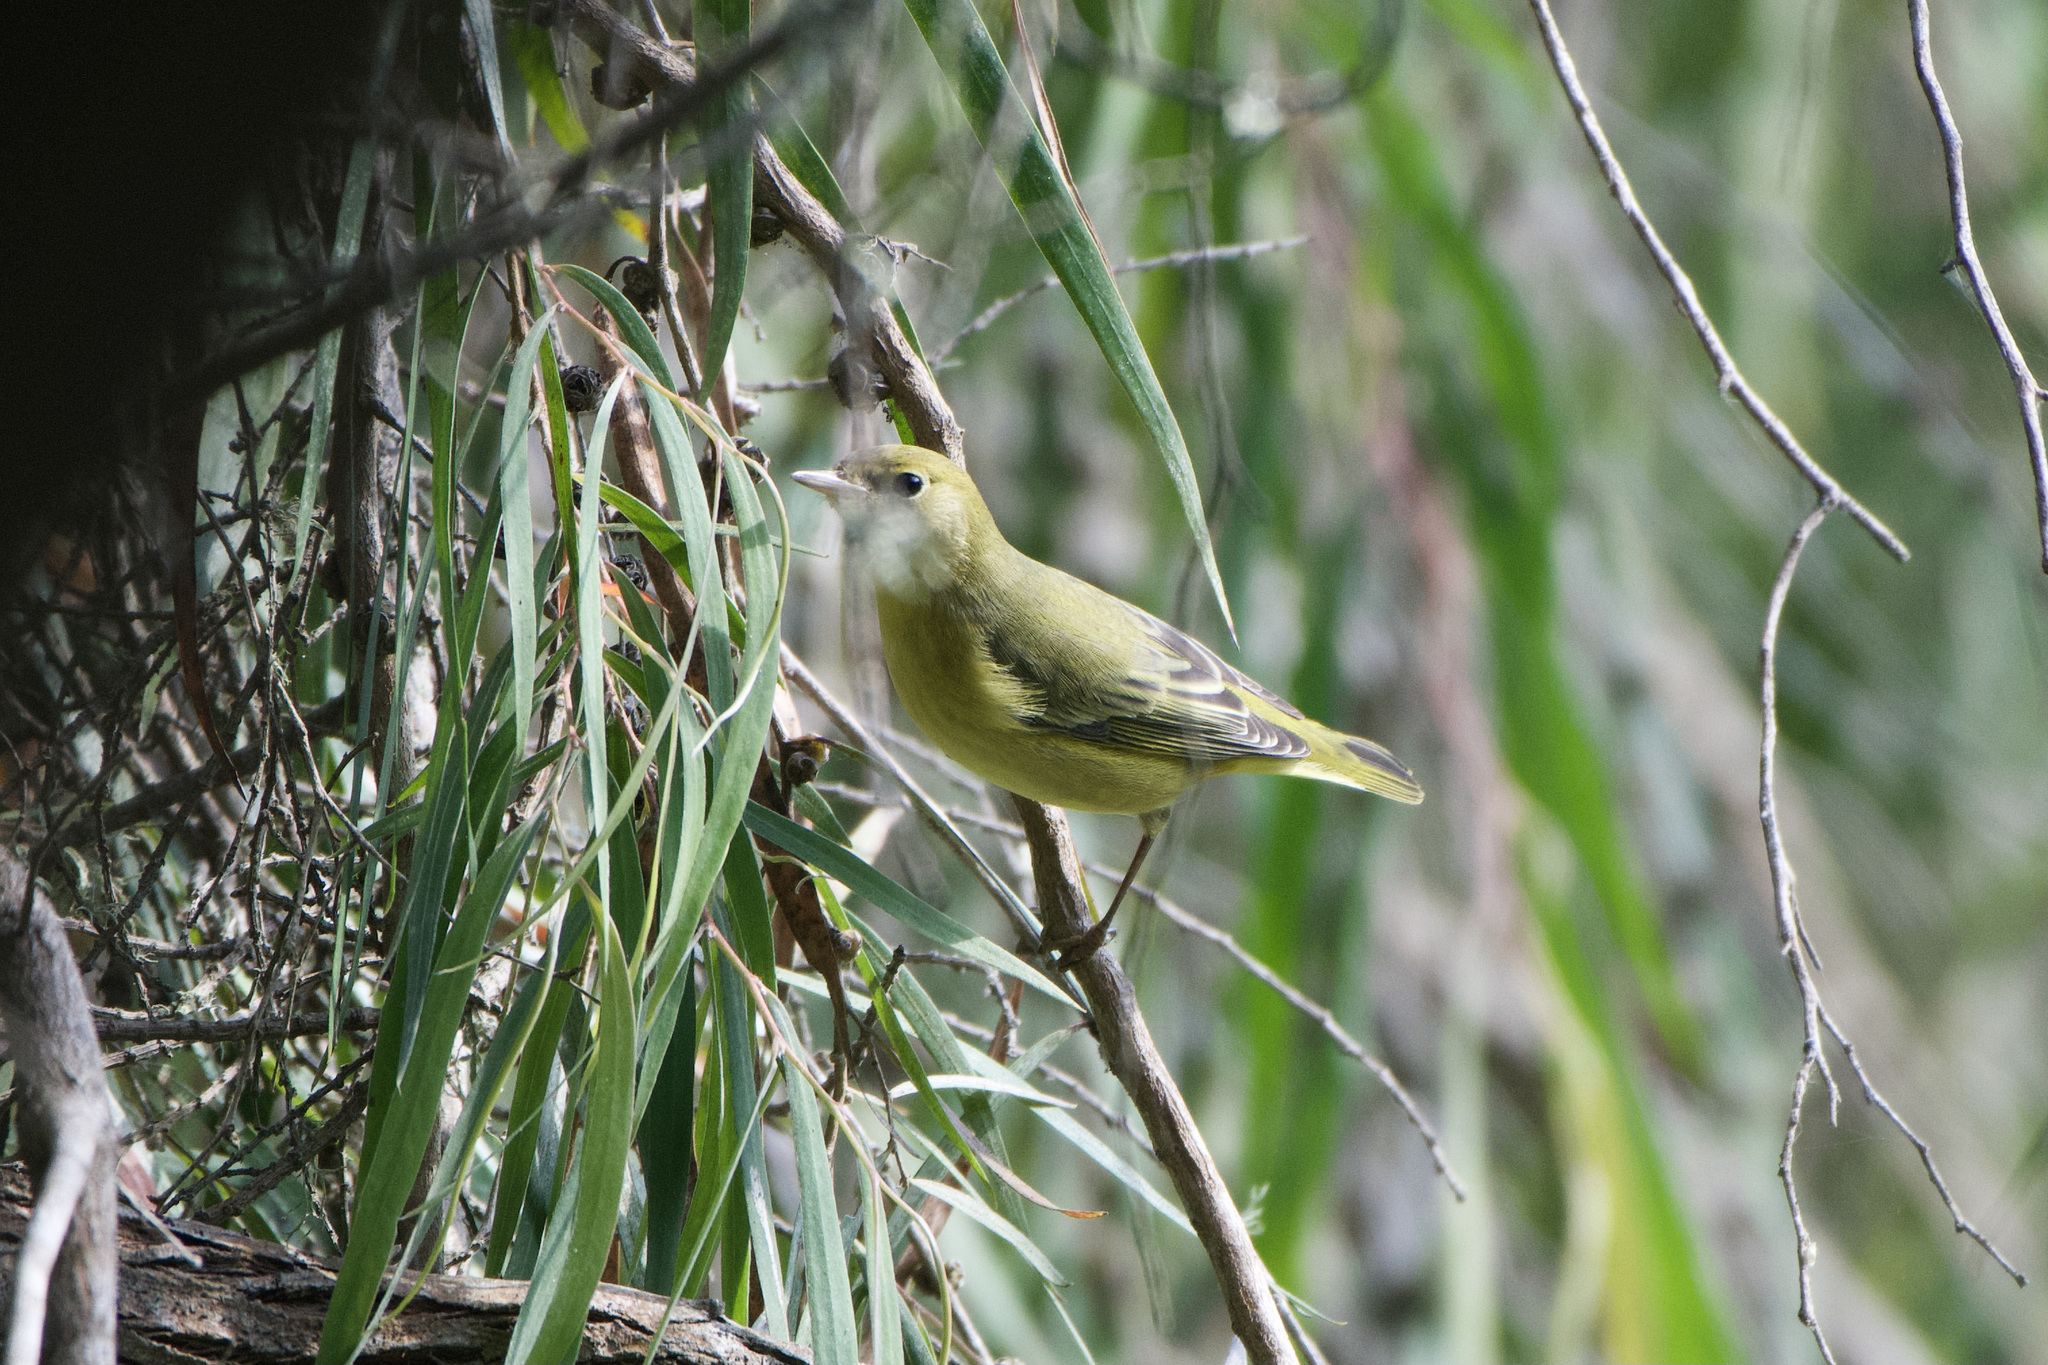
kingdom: Animalia
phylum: Chordata
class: Aves
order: Passeriformes
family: Parulidae
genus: Setophaga
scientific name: Setophaga petechia
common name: Yellow warbler
